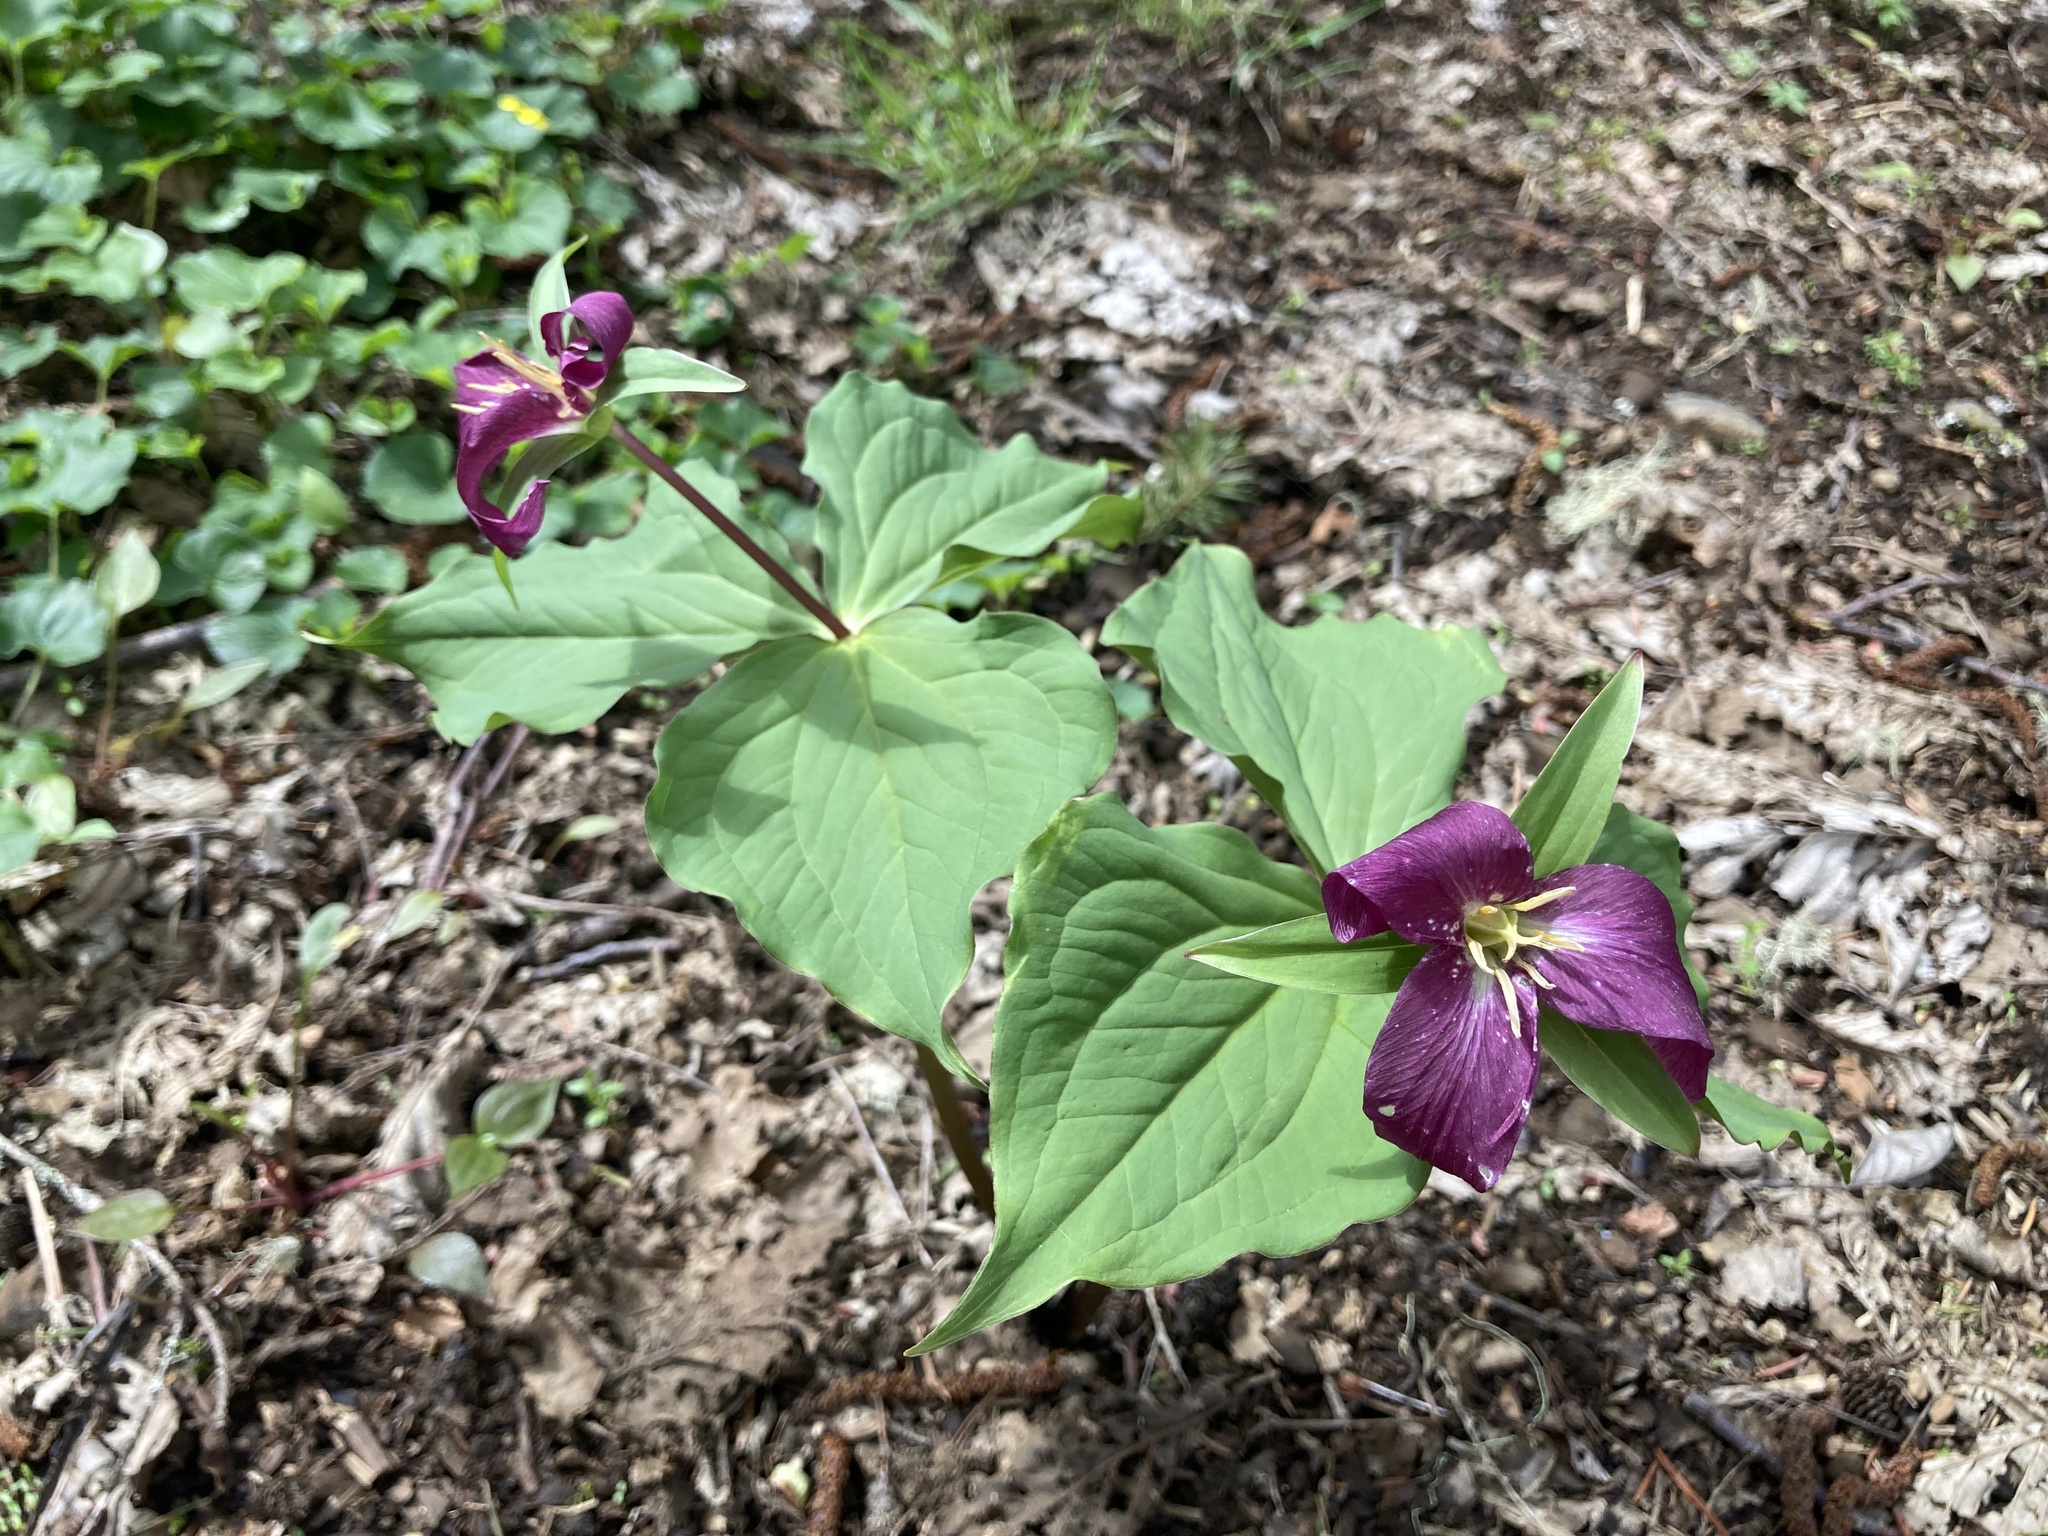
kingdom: Plantae
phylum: Tracheophyta
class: Liliopsida
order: Liliales
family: Melanthiaceae
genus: Trillium
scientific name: Trillium ovatum
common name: Pacific trillium
